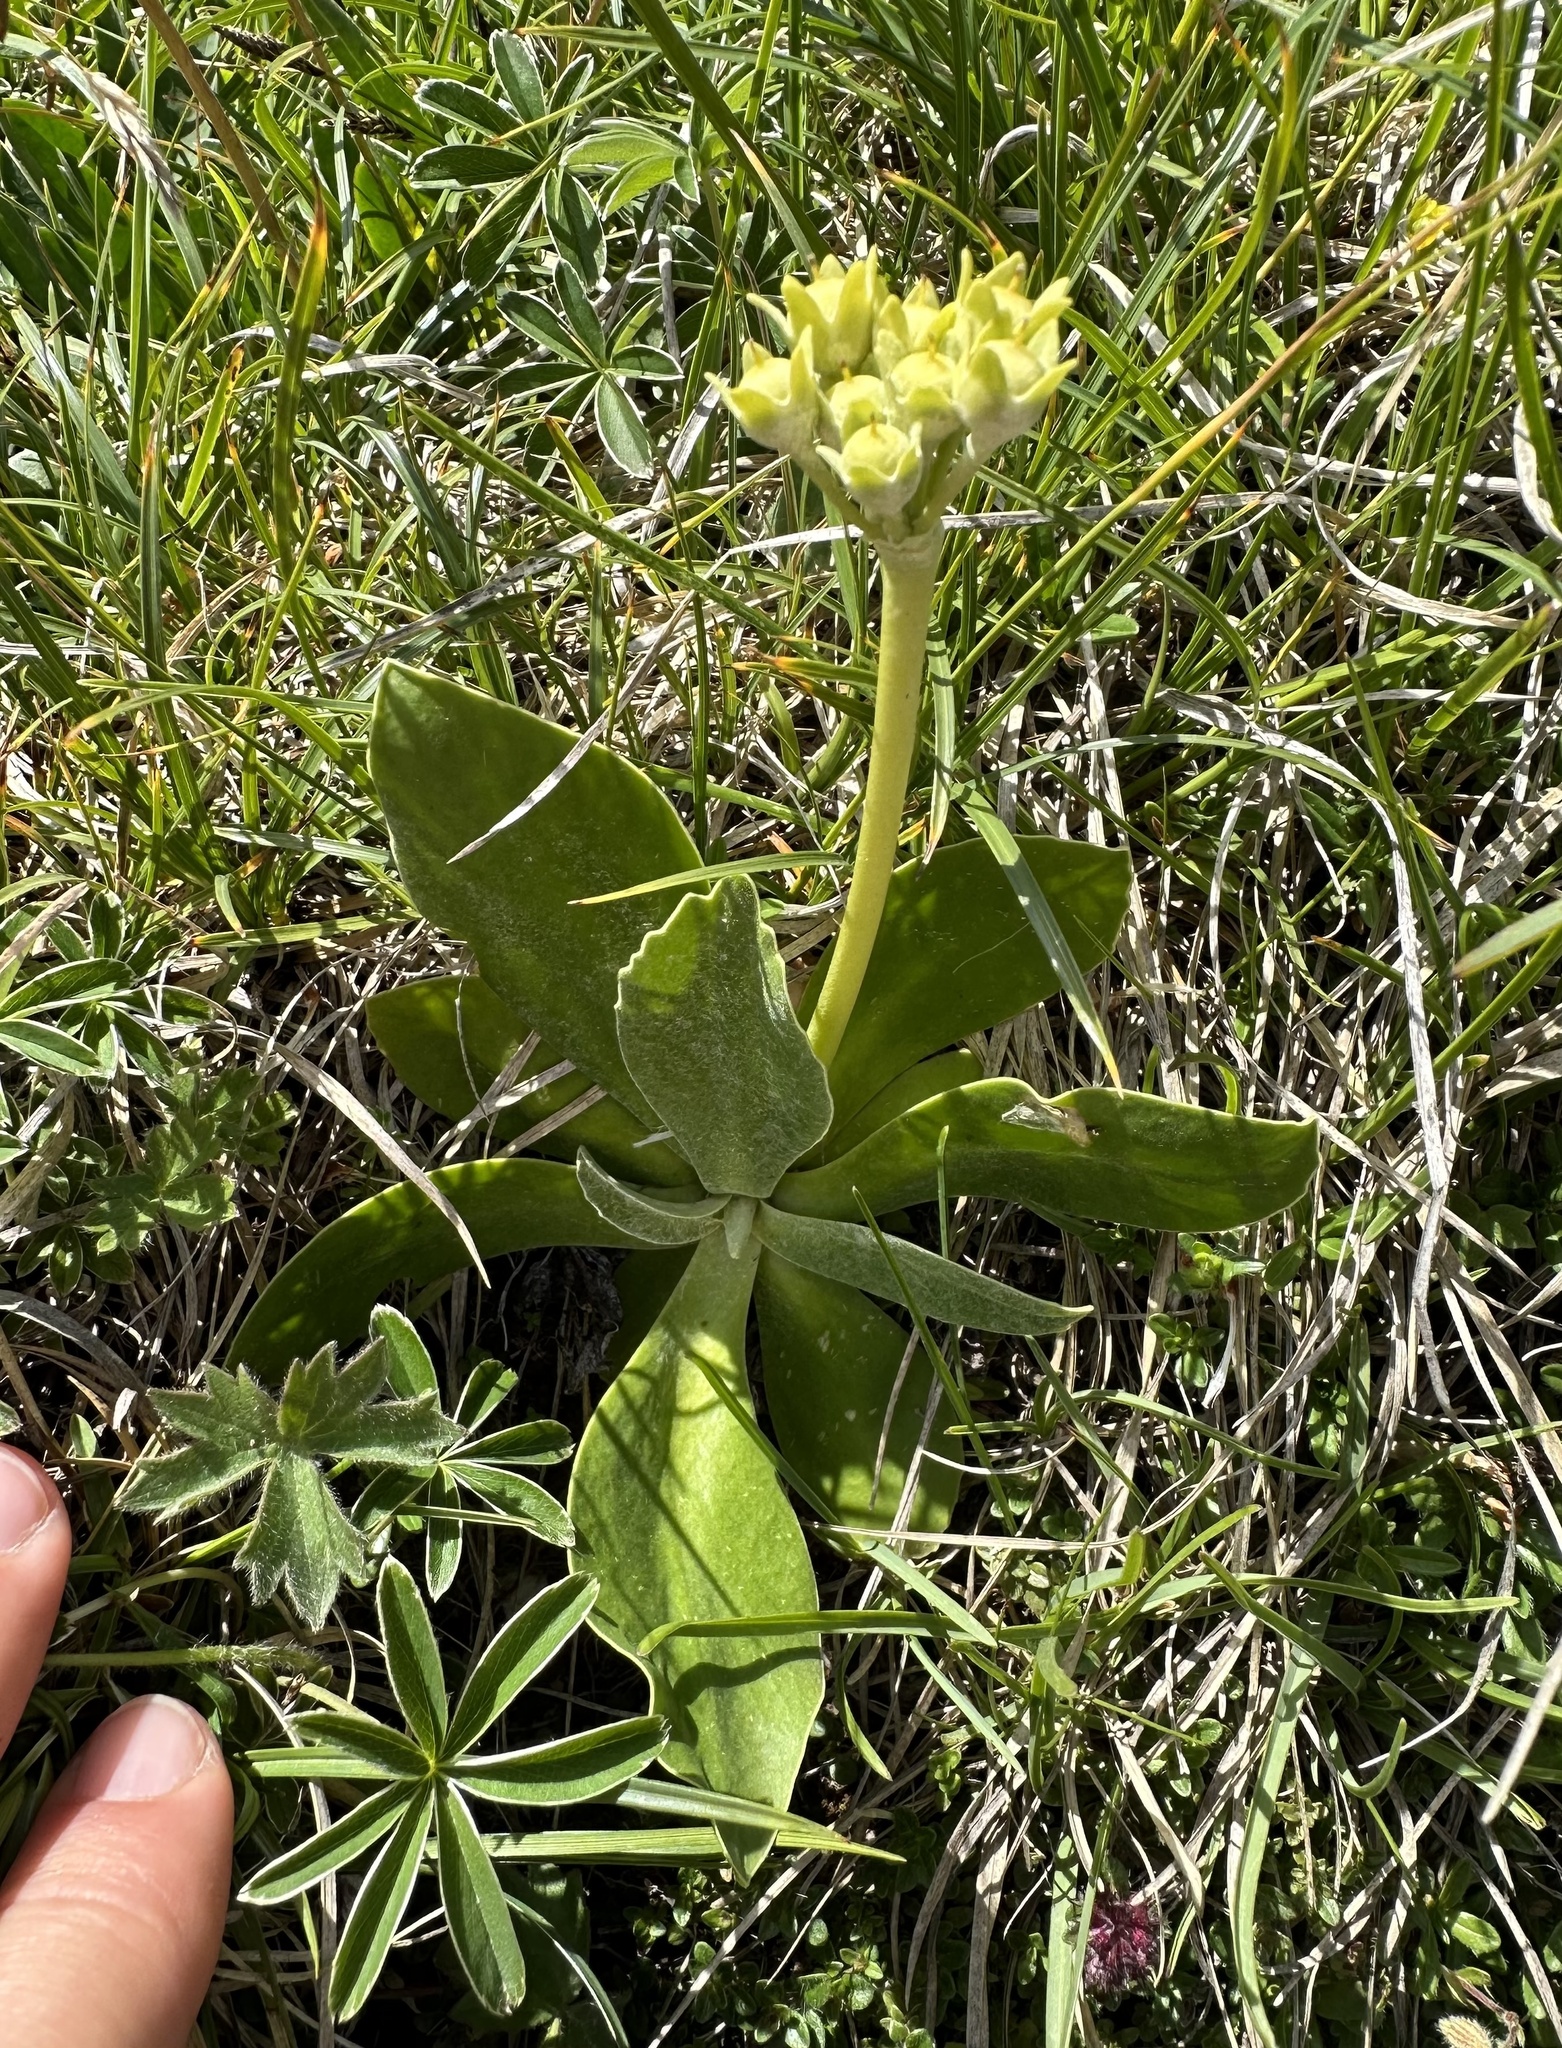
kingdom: Plantae
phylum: Tracheophyta
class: Magnoliopsida
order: Ericales
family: Primulaceae
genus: Primula
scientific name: Primula auricula
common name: Auricula
